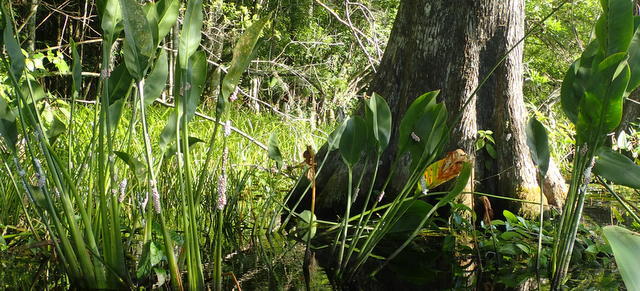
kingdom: Animalia
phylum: Mollusca
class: Gastropoda
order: Architaenioglossa
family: Ampullariidae
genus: Pomacea
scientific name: Pomacea paludosa
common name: Florida applesnail
